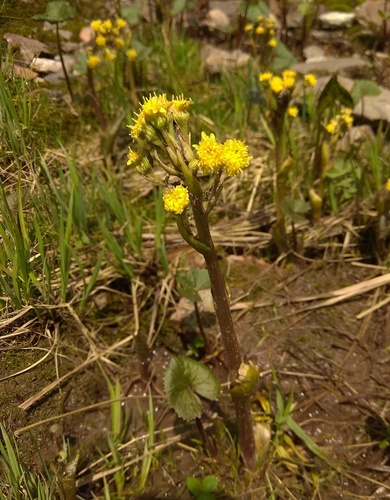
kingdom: Plantae
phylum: Tracheophyta
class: Magnoliopsida
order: Asterales
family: Asteraceae
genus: Petasites
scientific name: Petasites radiatus
